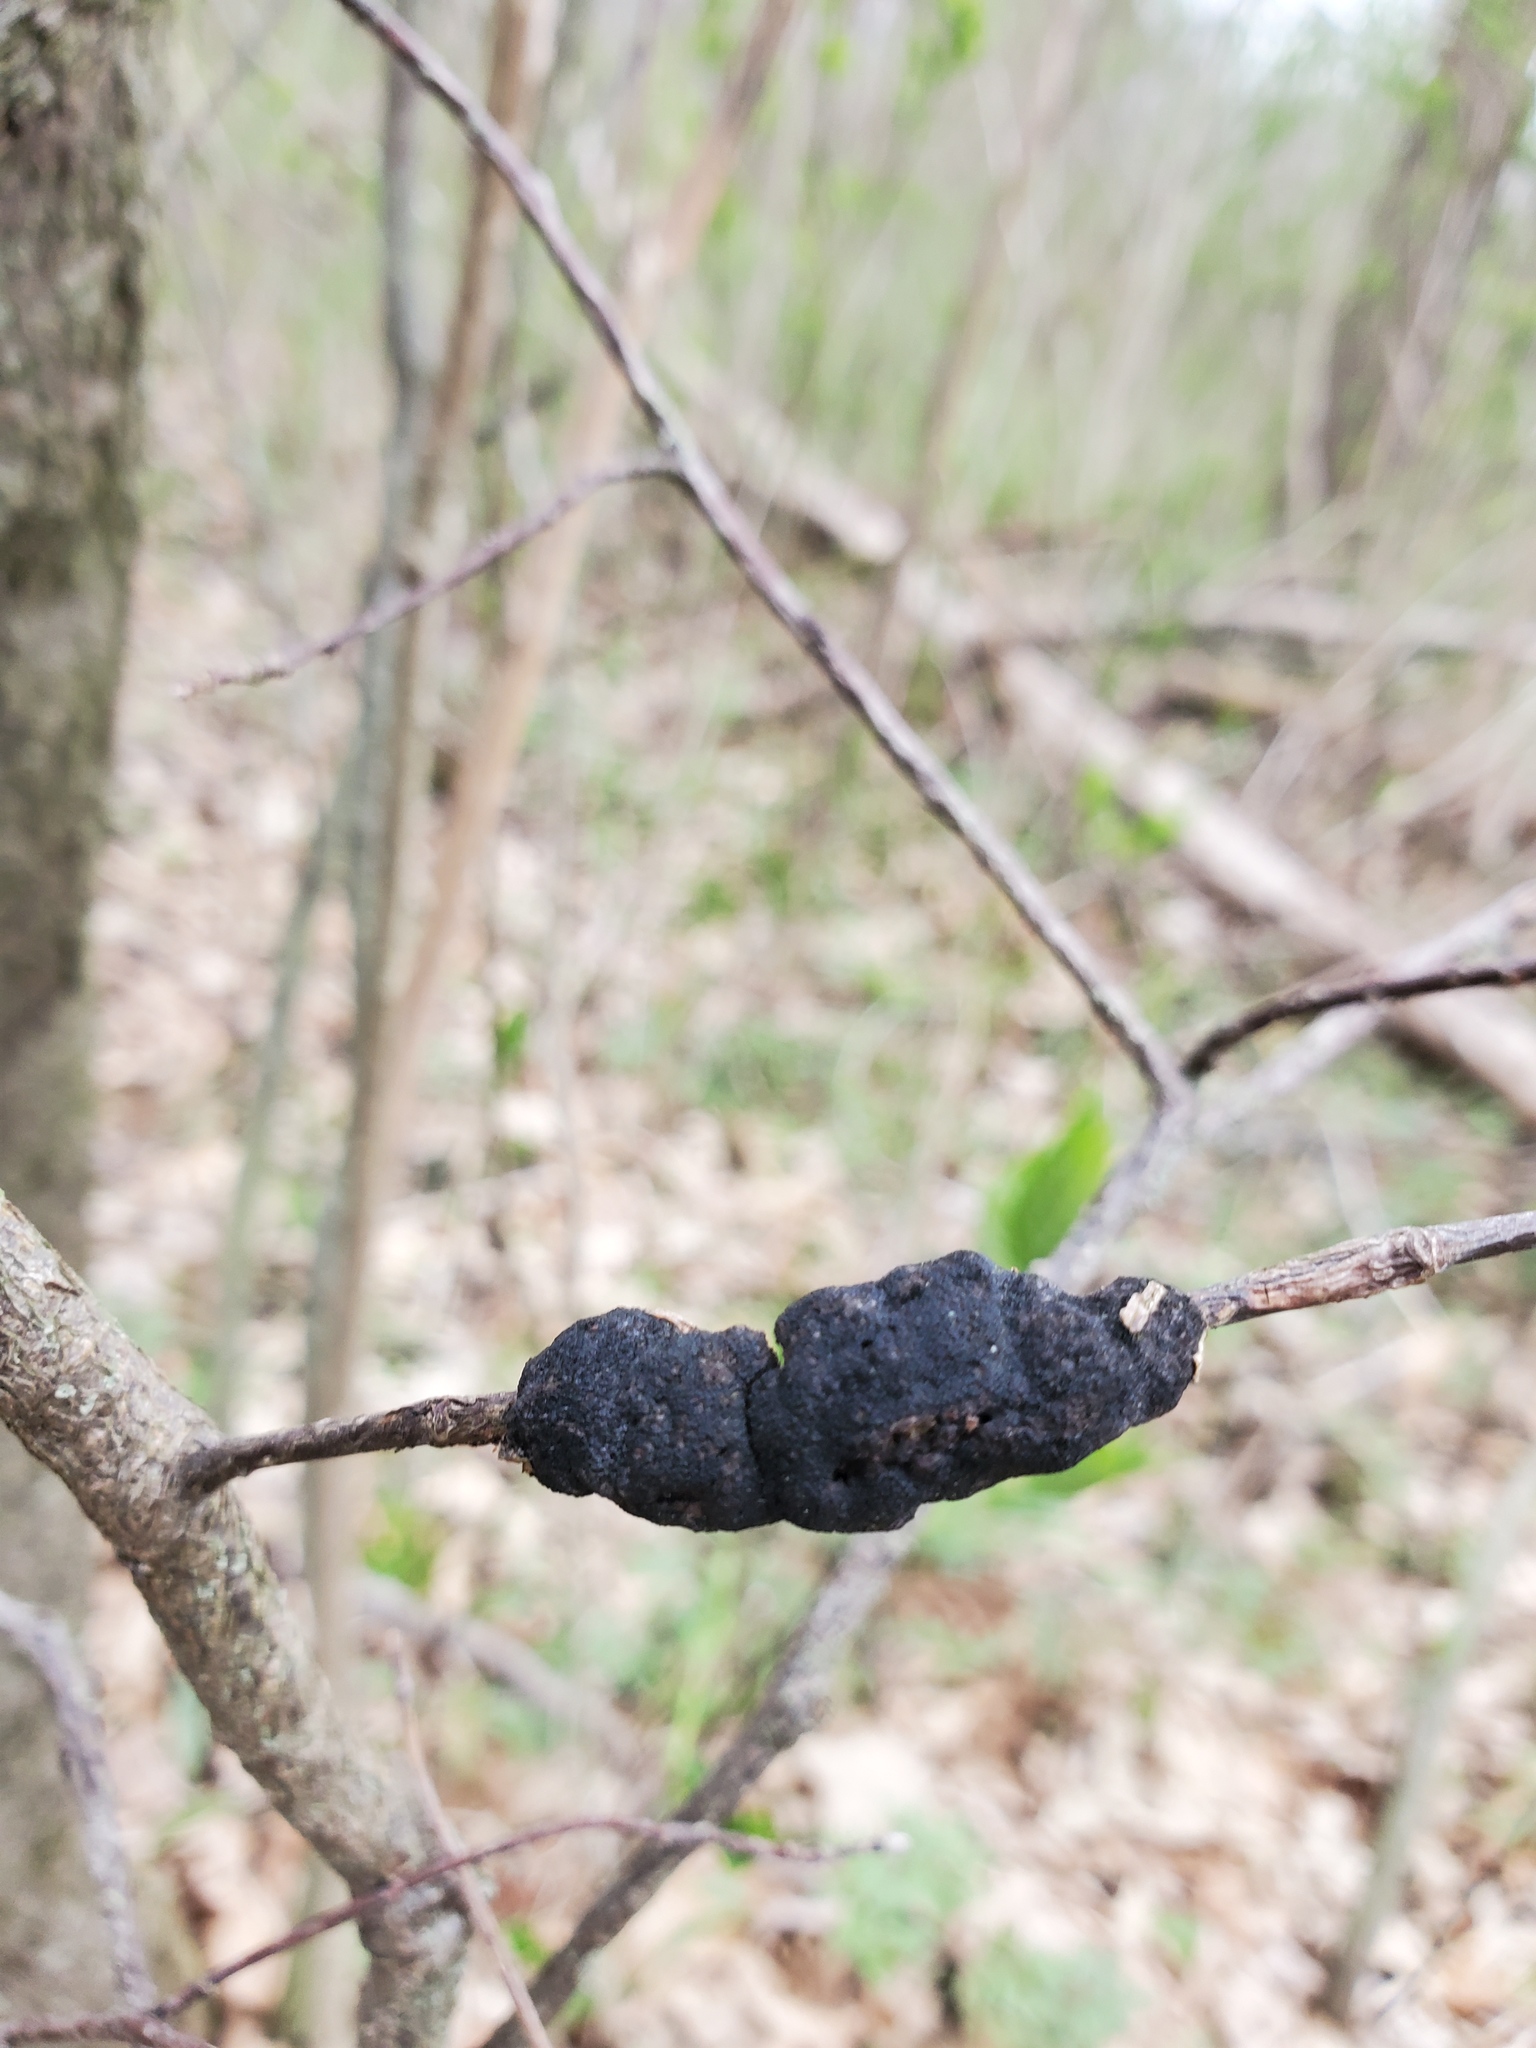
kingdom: Fungi
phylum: Ascomycota
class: Dothideomycetes
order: Venturiales
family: Venturiaceae
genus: Apiosporina
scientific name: Apiosporina morbosa
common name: Black knot
